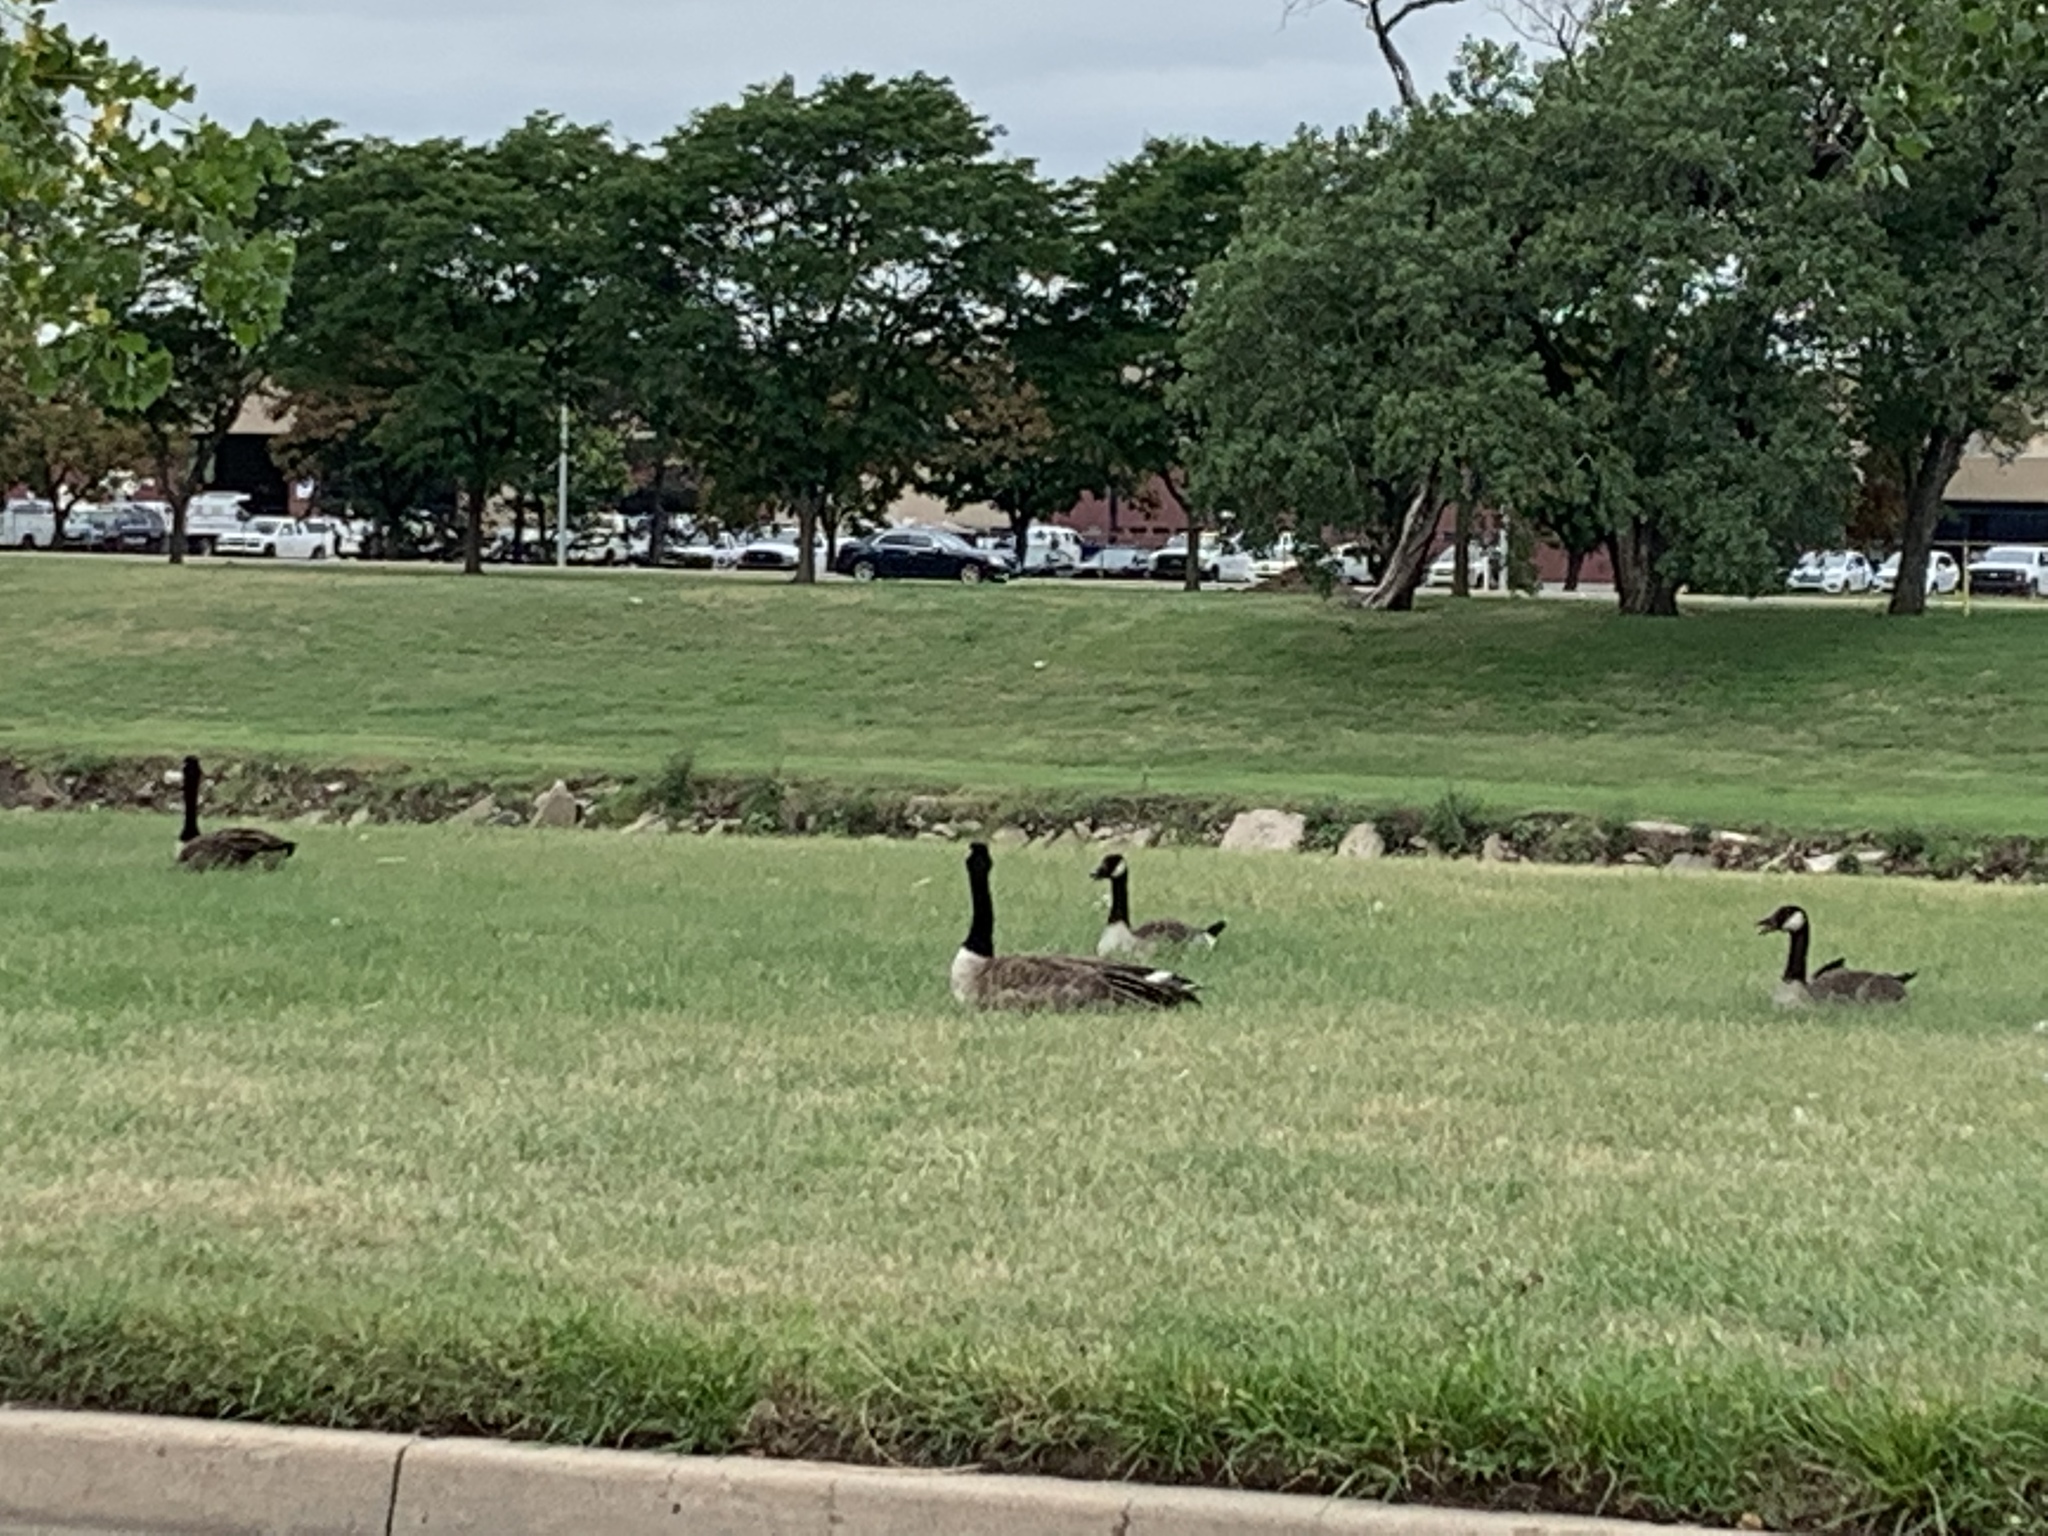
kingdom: Animalia
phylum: Chordata
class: Aves
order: Anseriformes
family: Anatidae
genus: Branta
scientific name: Branta canadensis
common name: Canada goose
